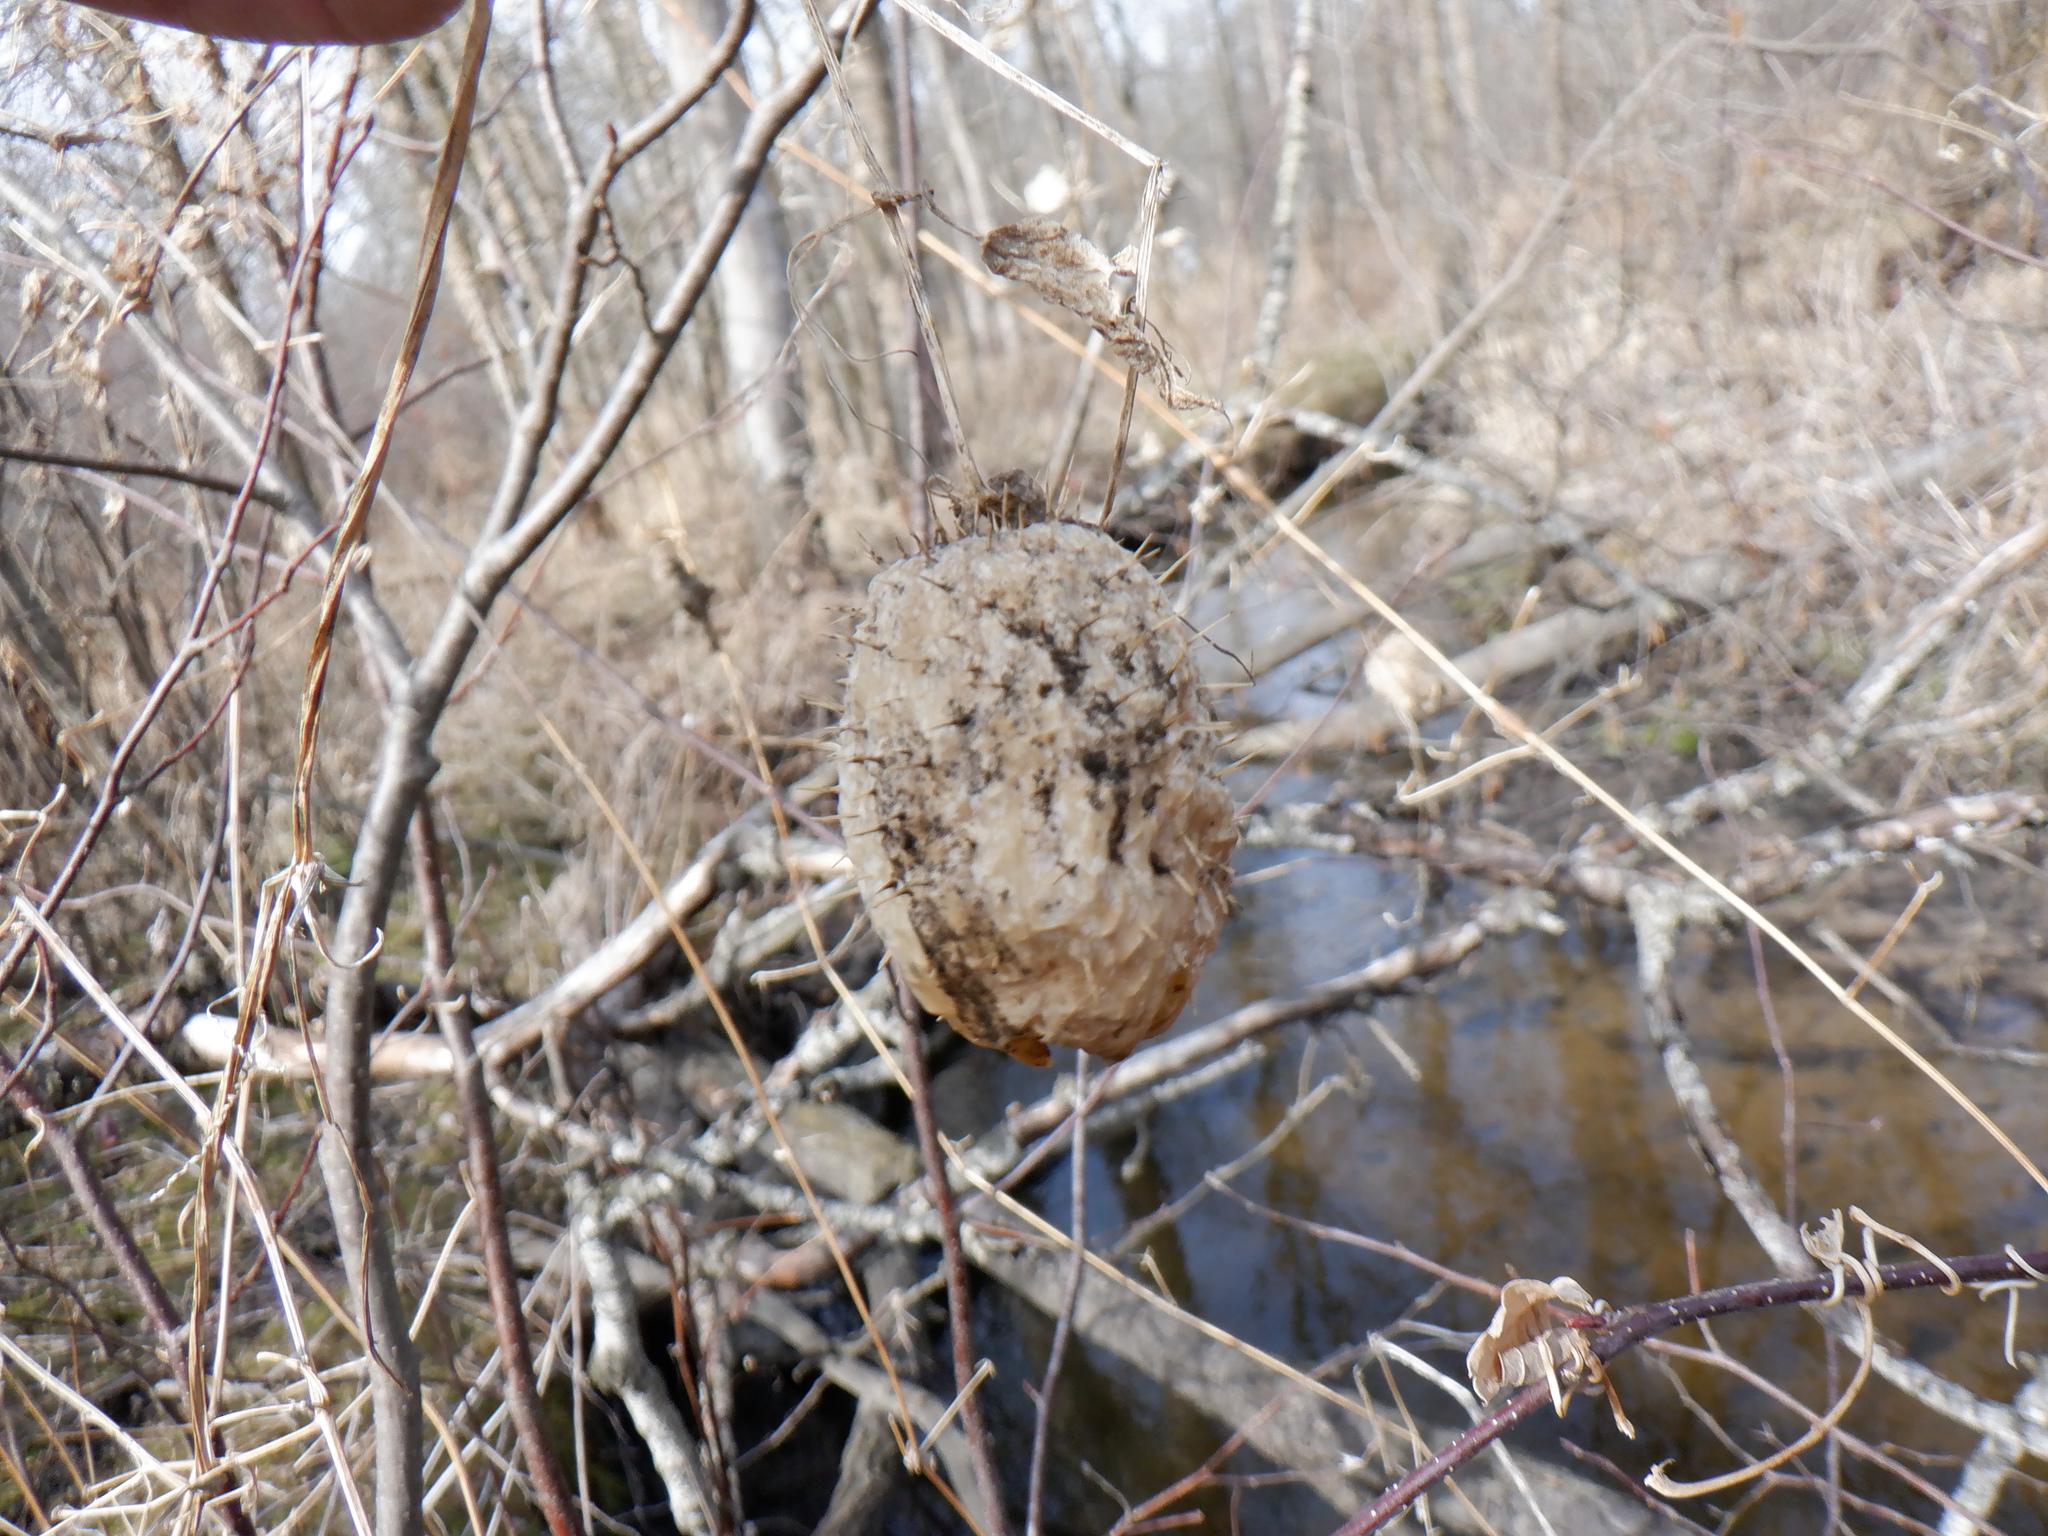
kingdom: Plantae
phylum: Tracheophyta
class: Magnoliopsida
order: Cucurbitales
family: Cucurbitaceae
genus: Echinocystis
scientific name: Echinocystis lobata
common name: Wild cucumber
